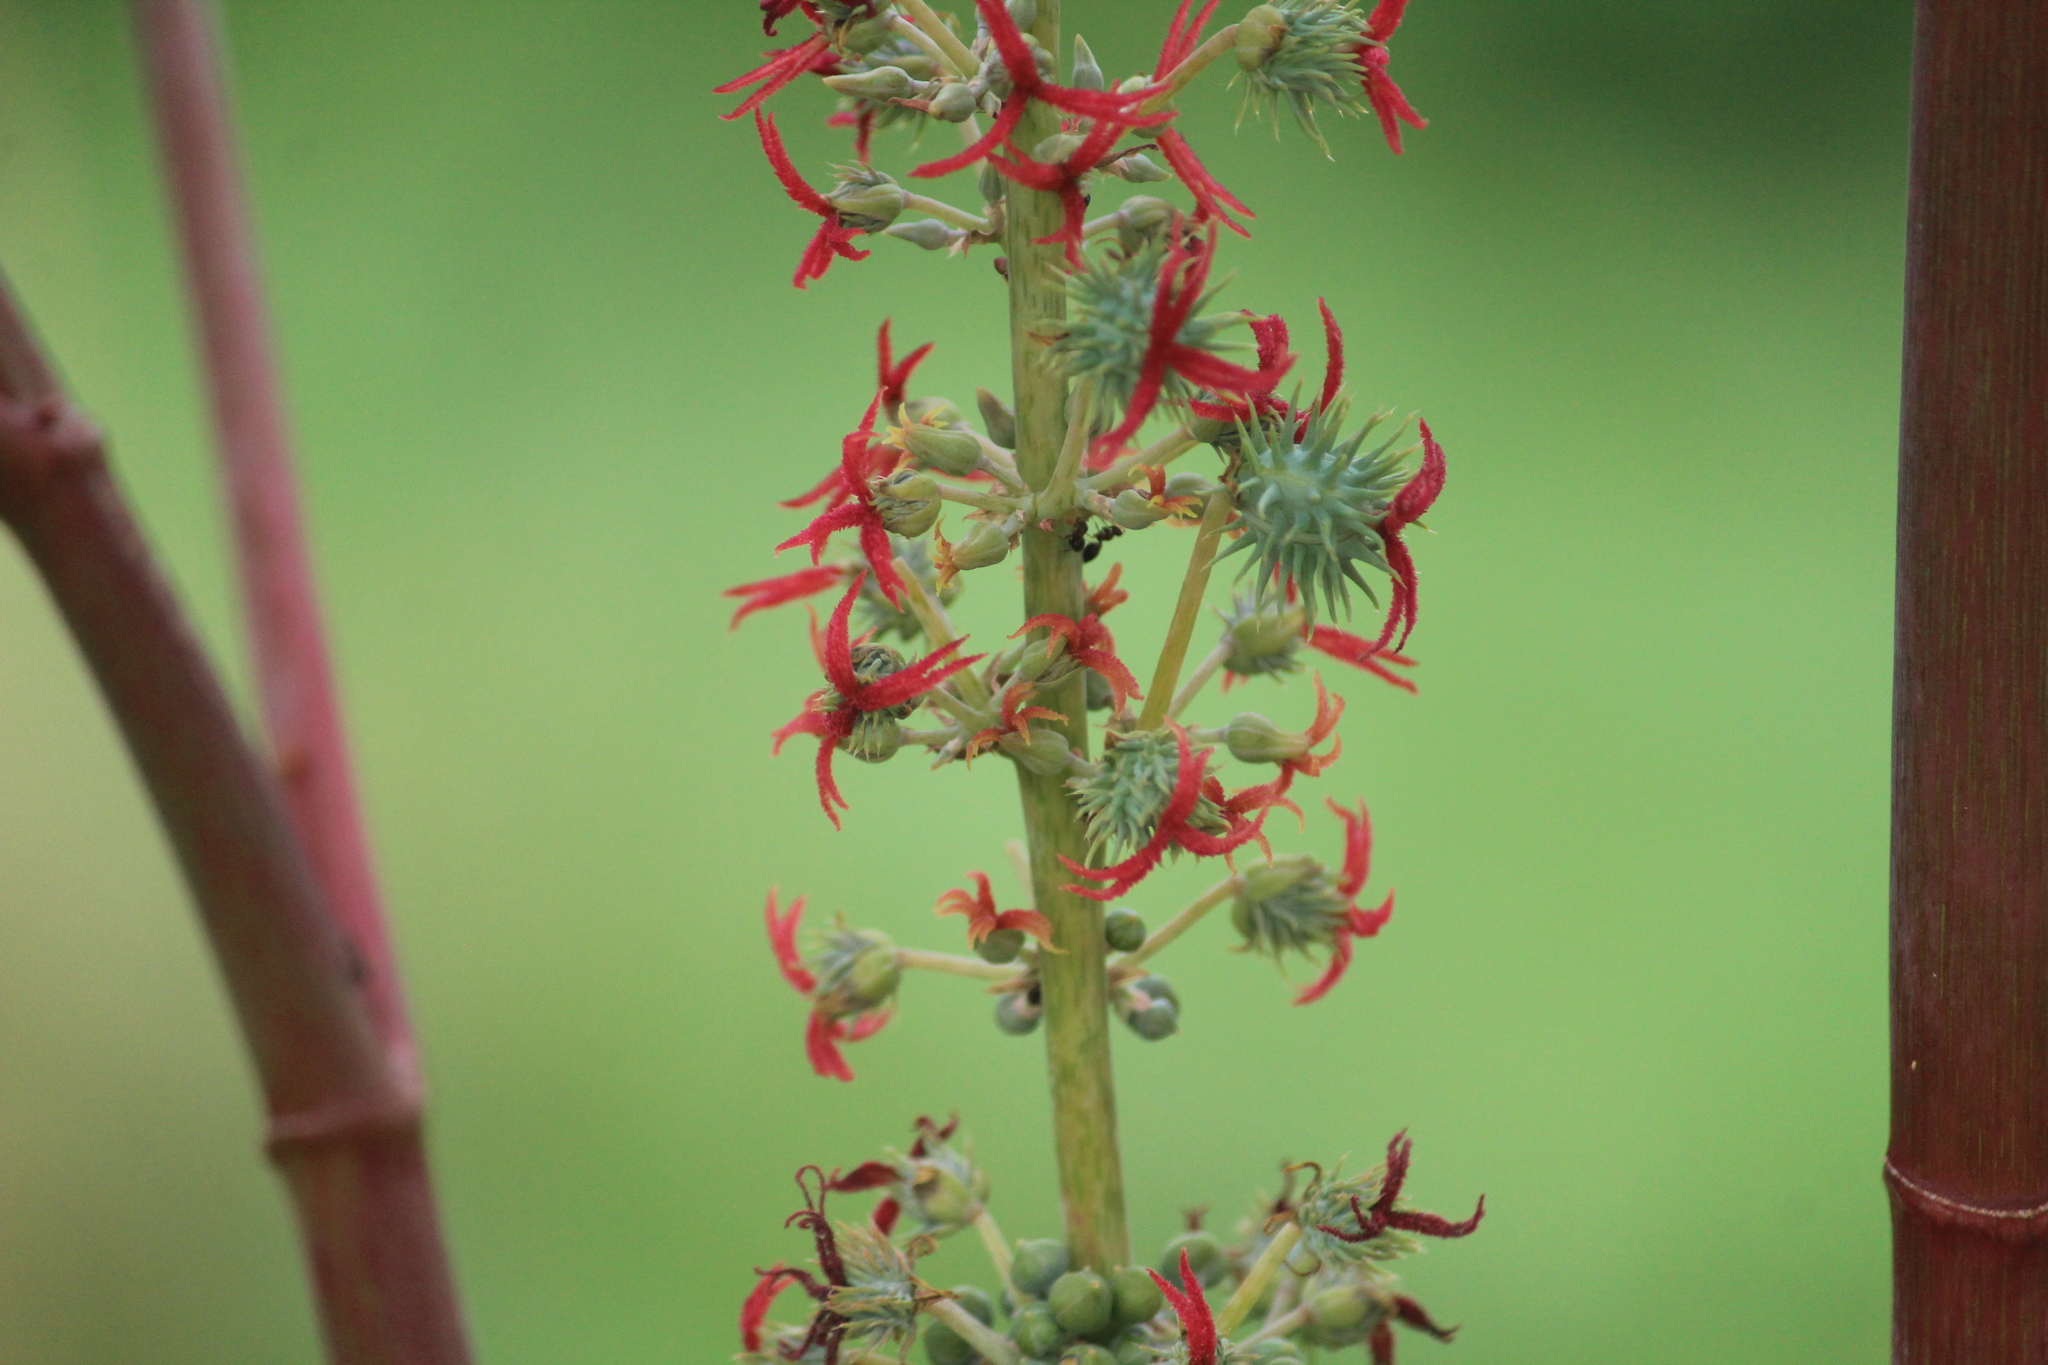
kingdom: Plantae
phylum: Tracheophyta
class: Magnoliopsida
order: Malpighiales
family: Euphorbiaceae
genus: Ricinus
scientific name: Ricinus communis
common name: Castor-oil-plant
